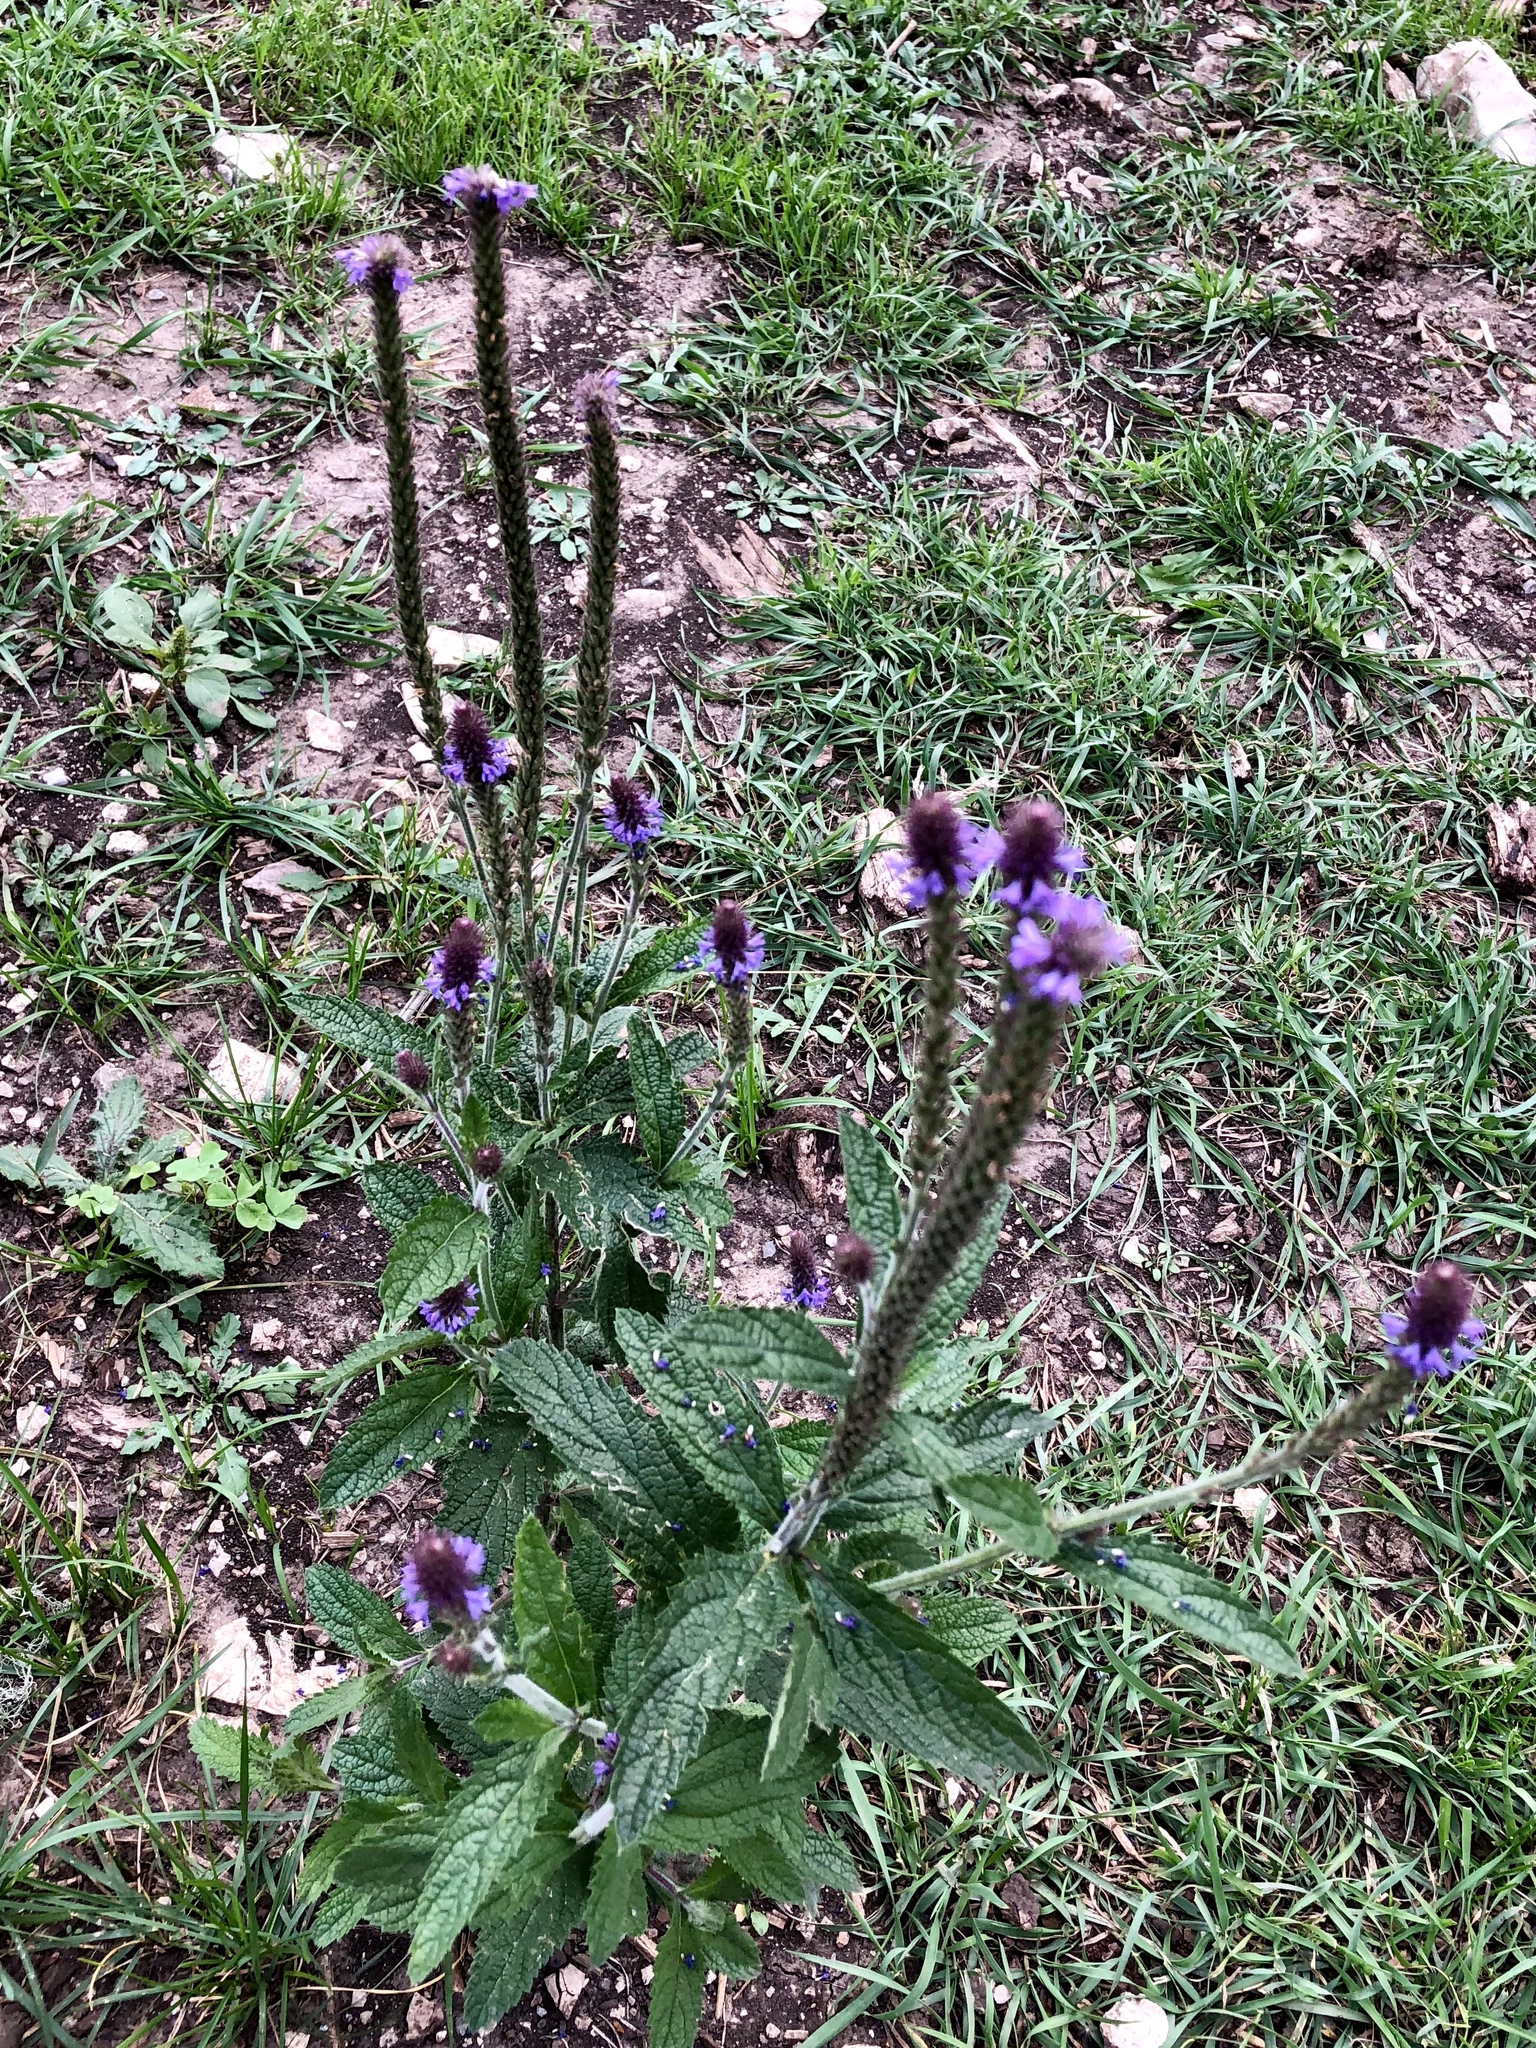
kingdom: Plantae
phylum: Tracheophyta
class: Magnoliopsida
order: Lamiales
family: Verbenaceae
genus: Verbena
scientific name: Verbena macdougalii
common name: New mexico vervain
